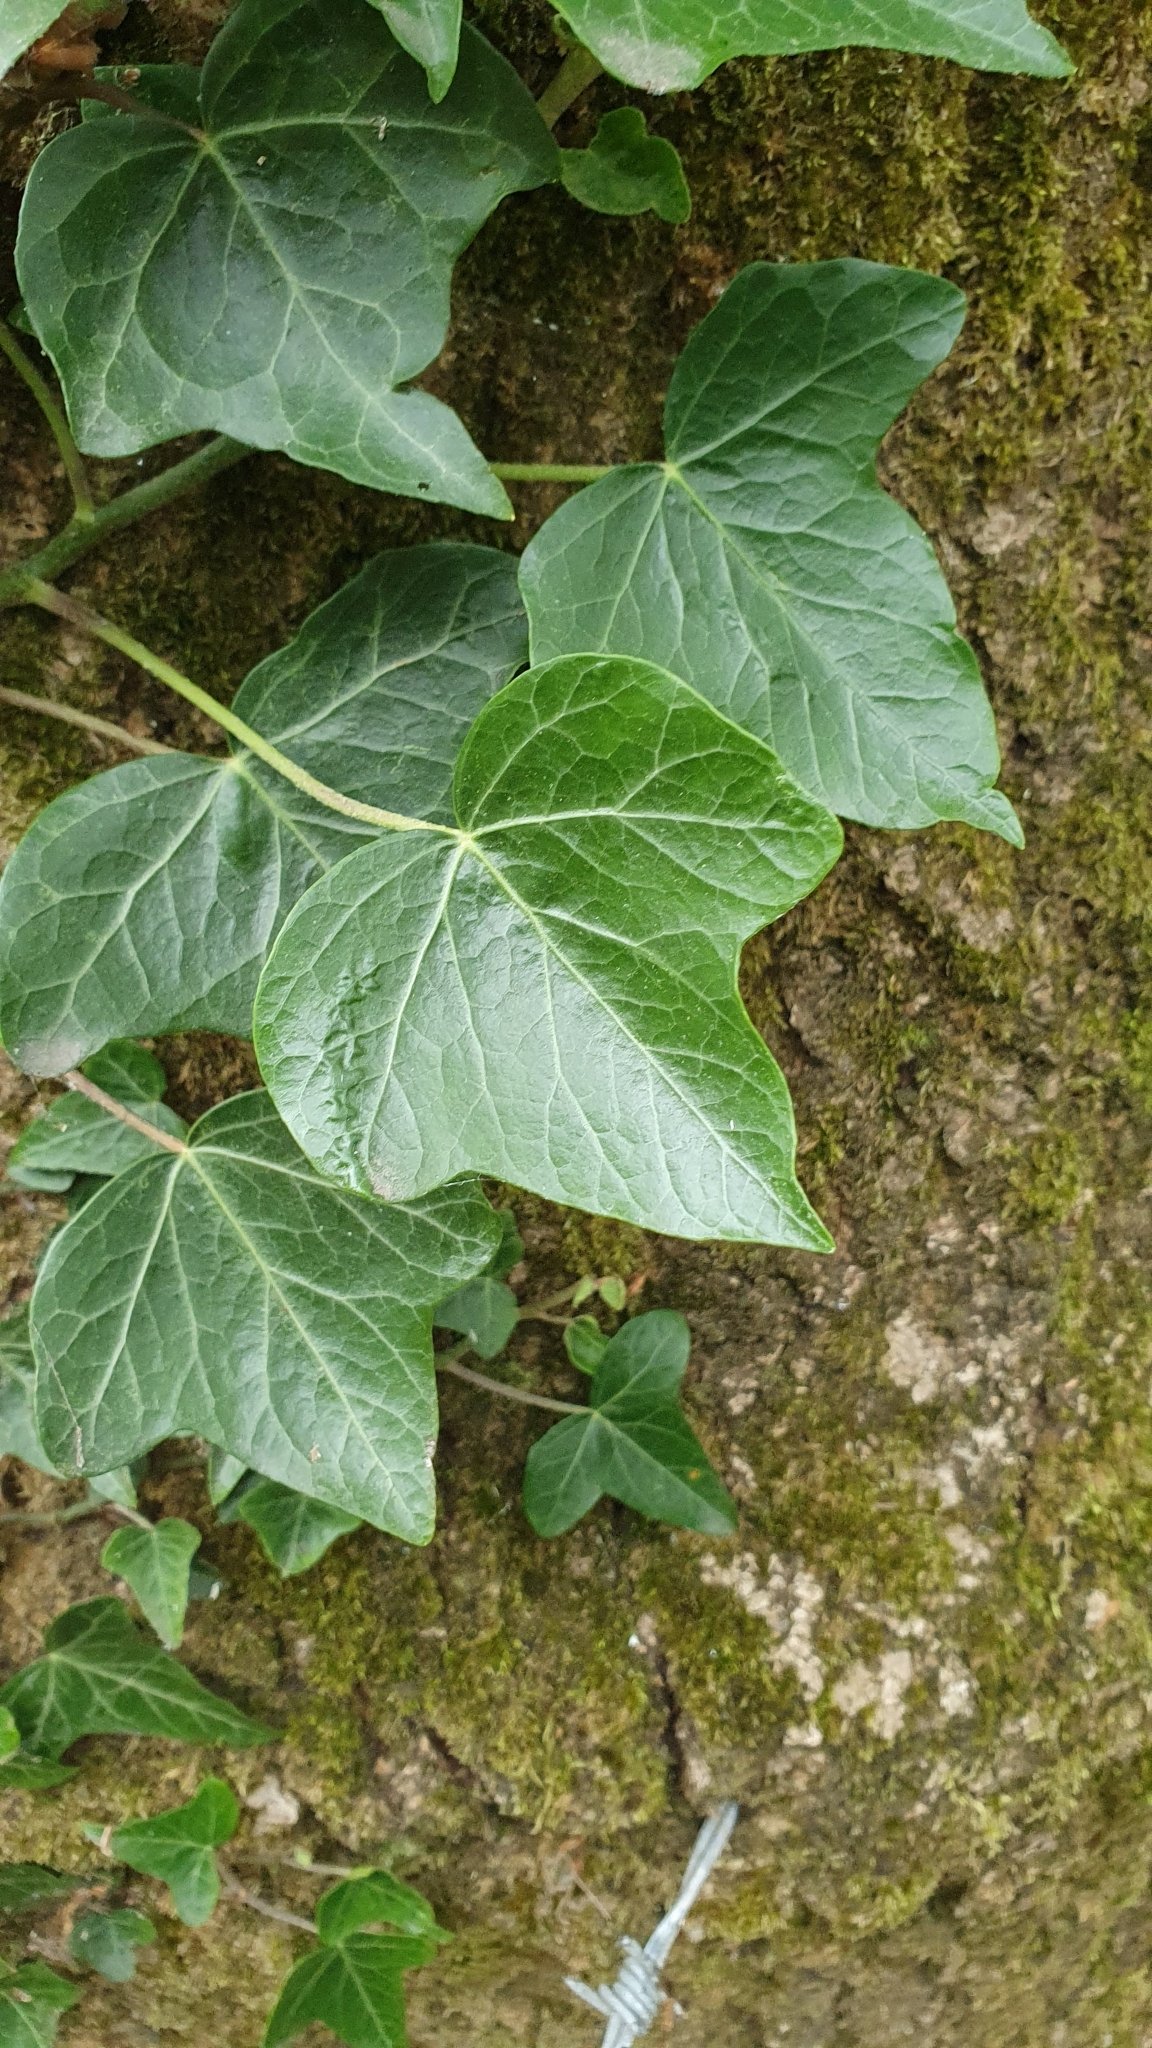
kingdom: Plantae
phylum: Tracheophyta
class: Magnoliopsida
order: Apiales
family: Araliaceae
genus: Hedera
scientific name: Hedera helix
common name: Ivy
